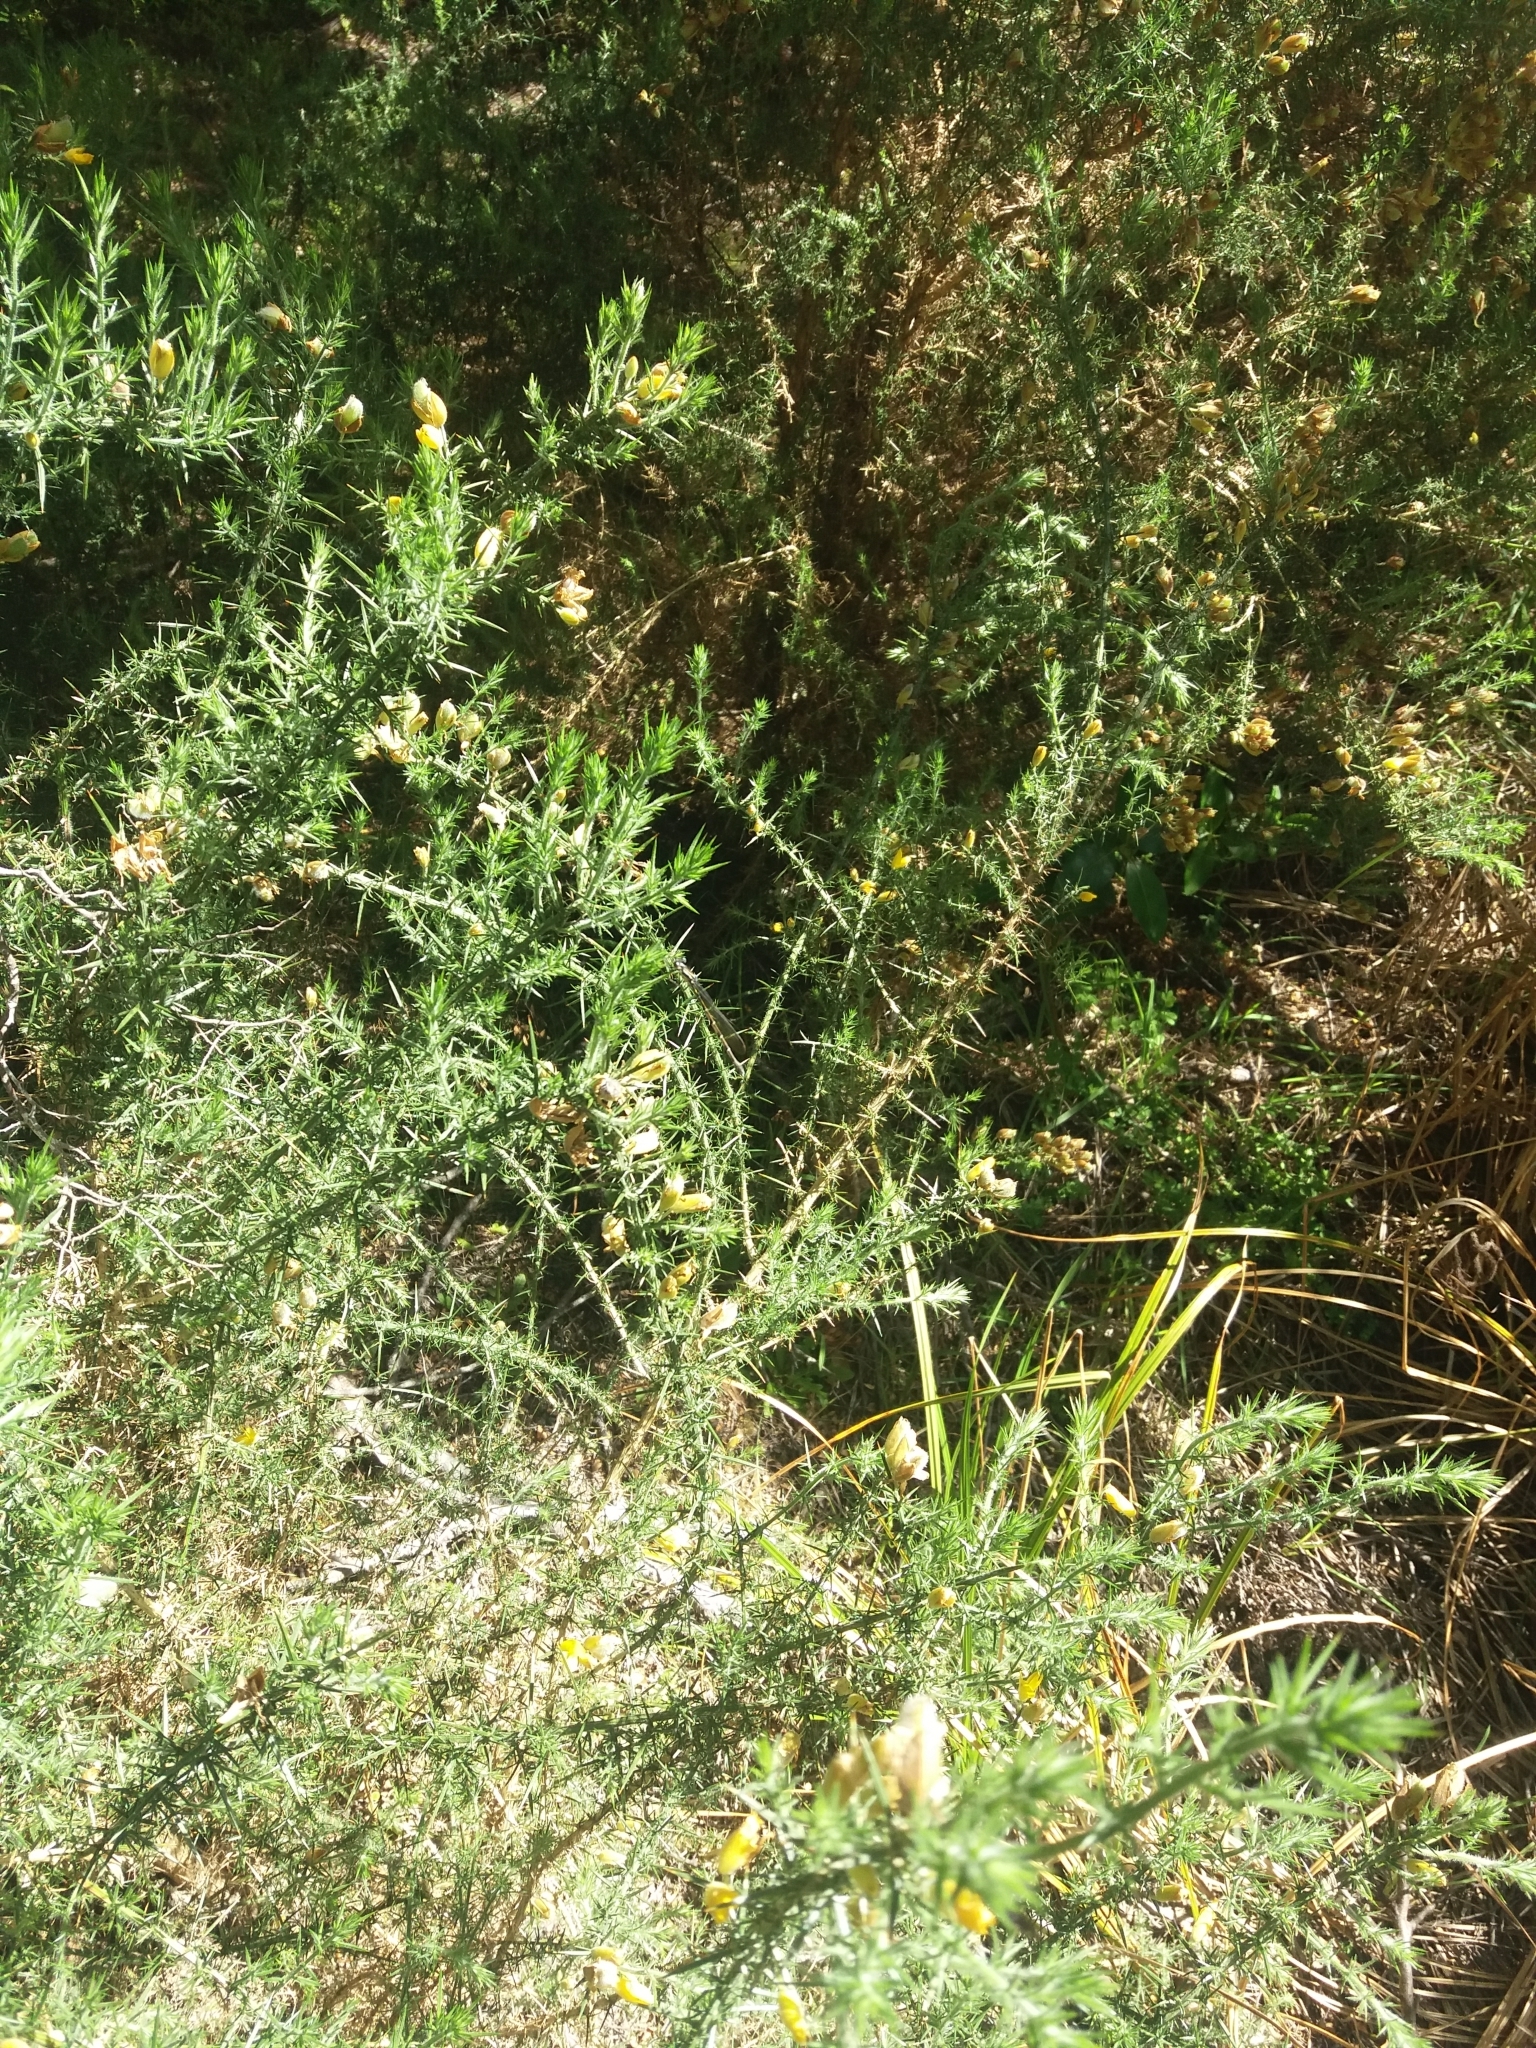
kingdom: Plantae
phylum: Tracheophyta
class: Magnoliopsida
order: Fabales
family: Fabaceae
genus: Ulex
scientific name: Ulex europaeus
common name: Common gorse
